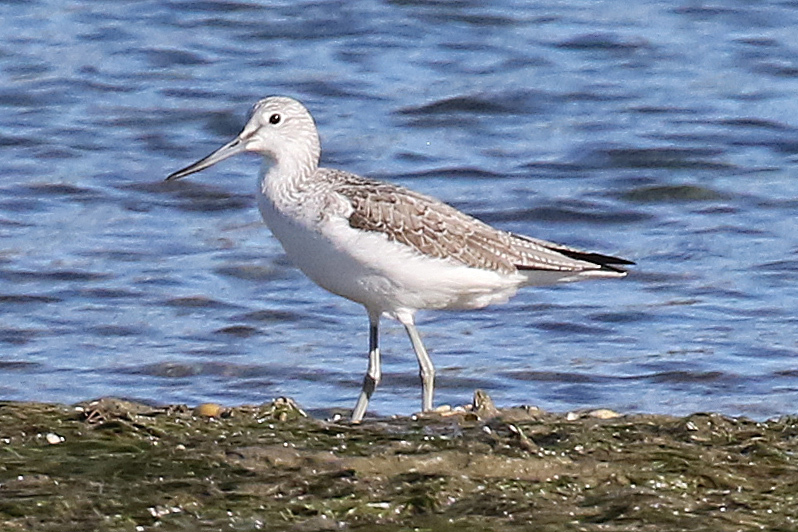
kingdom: Animalia
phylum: Chordata
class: Aves
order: Charadriiformes
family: Scolopacidae
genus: Tringa
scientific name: Tringa nebularia
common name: Common greenshank
